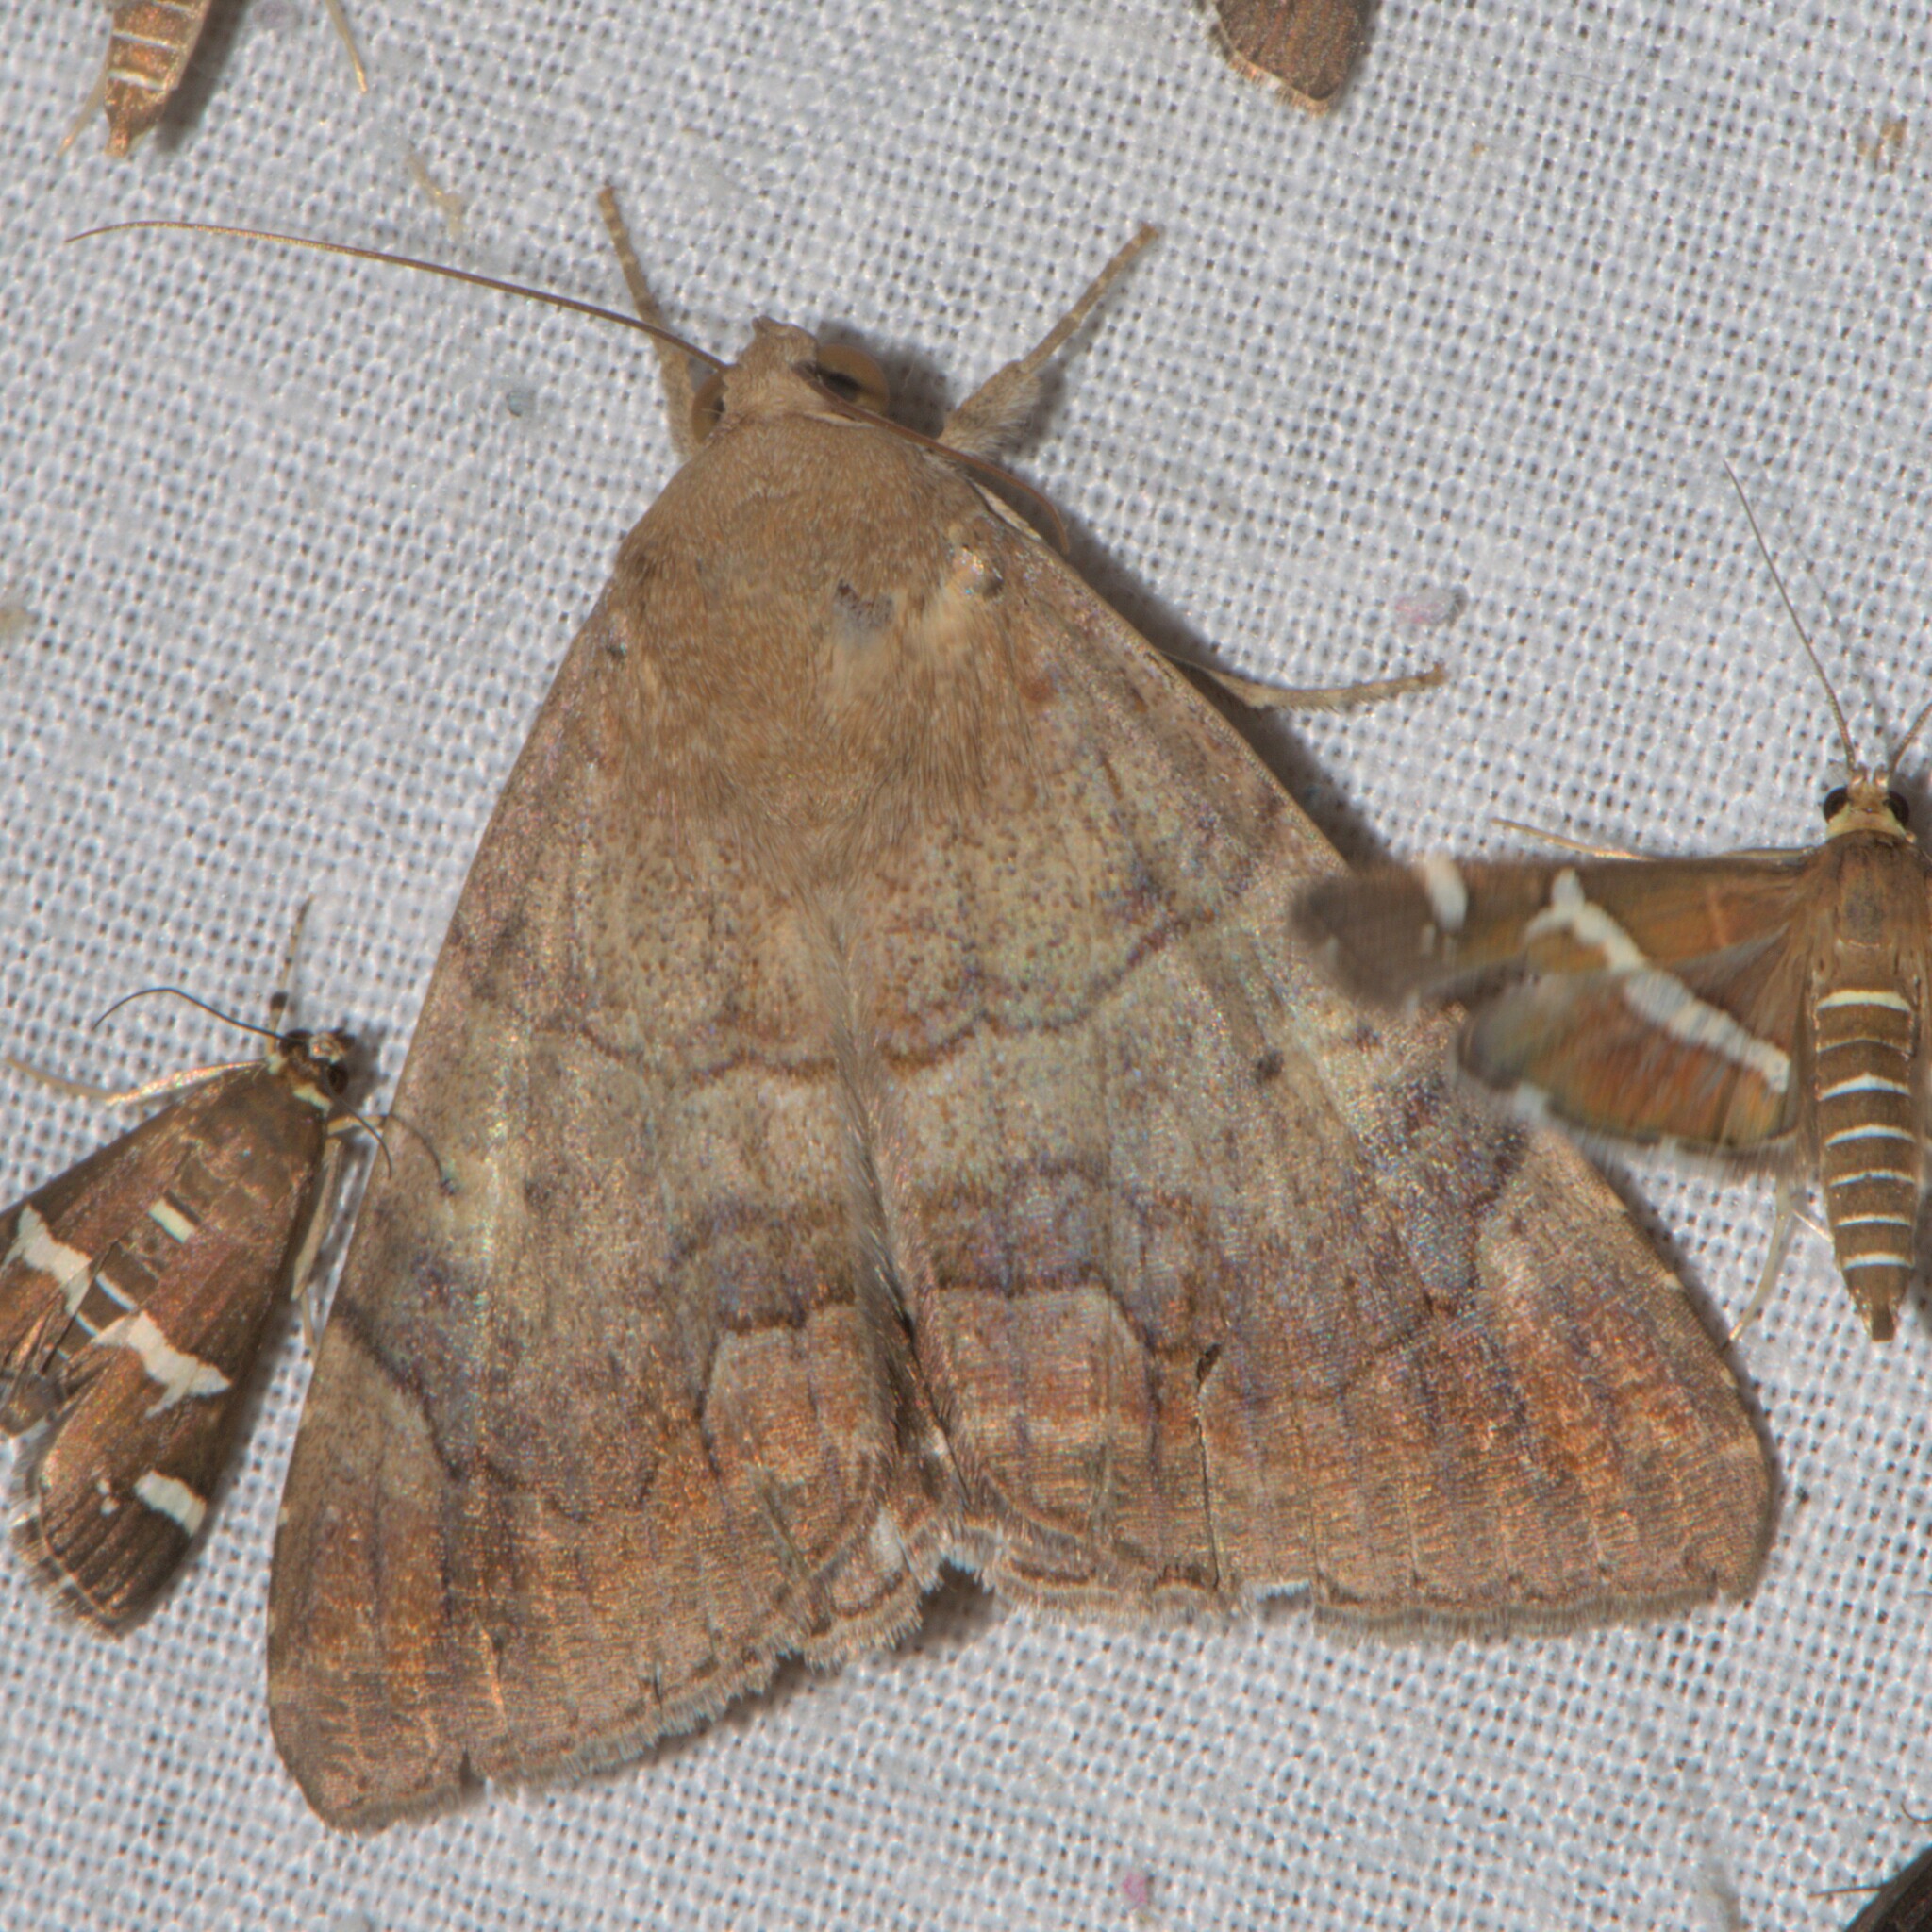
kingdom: Animalia
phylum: Arthropoda
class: Insecta
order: Lepidoptera
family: Erebidae
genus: Achaea
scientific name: Achaea janata
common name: Croton caterpillar
